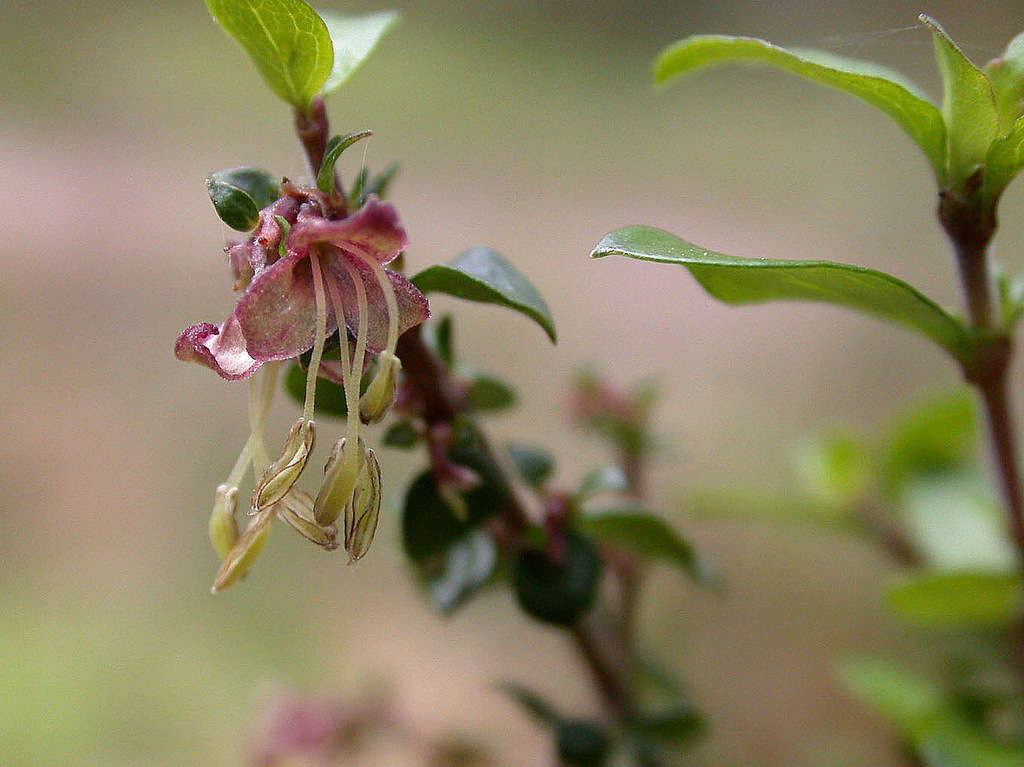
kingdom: Plantae
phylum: Tracheophyta
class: Magnoliopsida
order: Gentianales
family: Rubiaceae
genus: Coprosma
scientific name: Coprosma quadrifida
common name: Prickly currantbush
